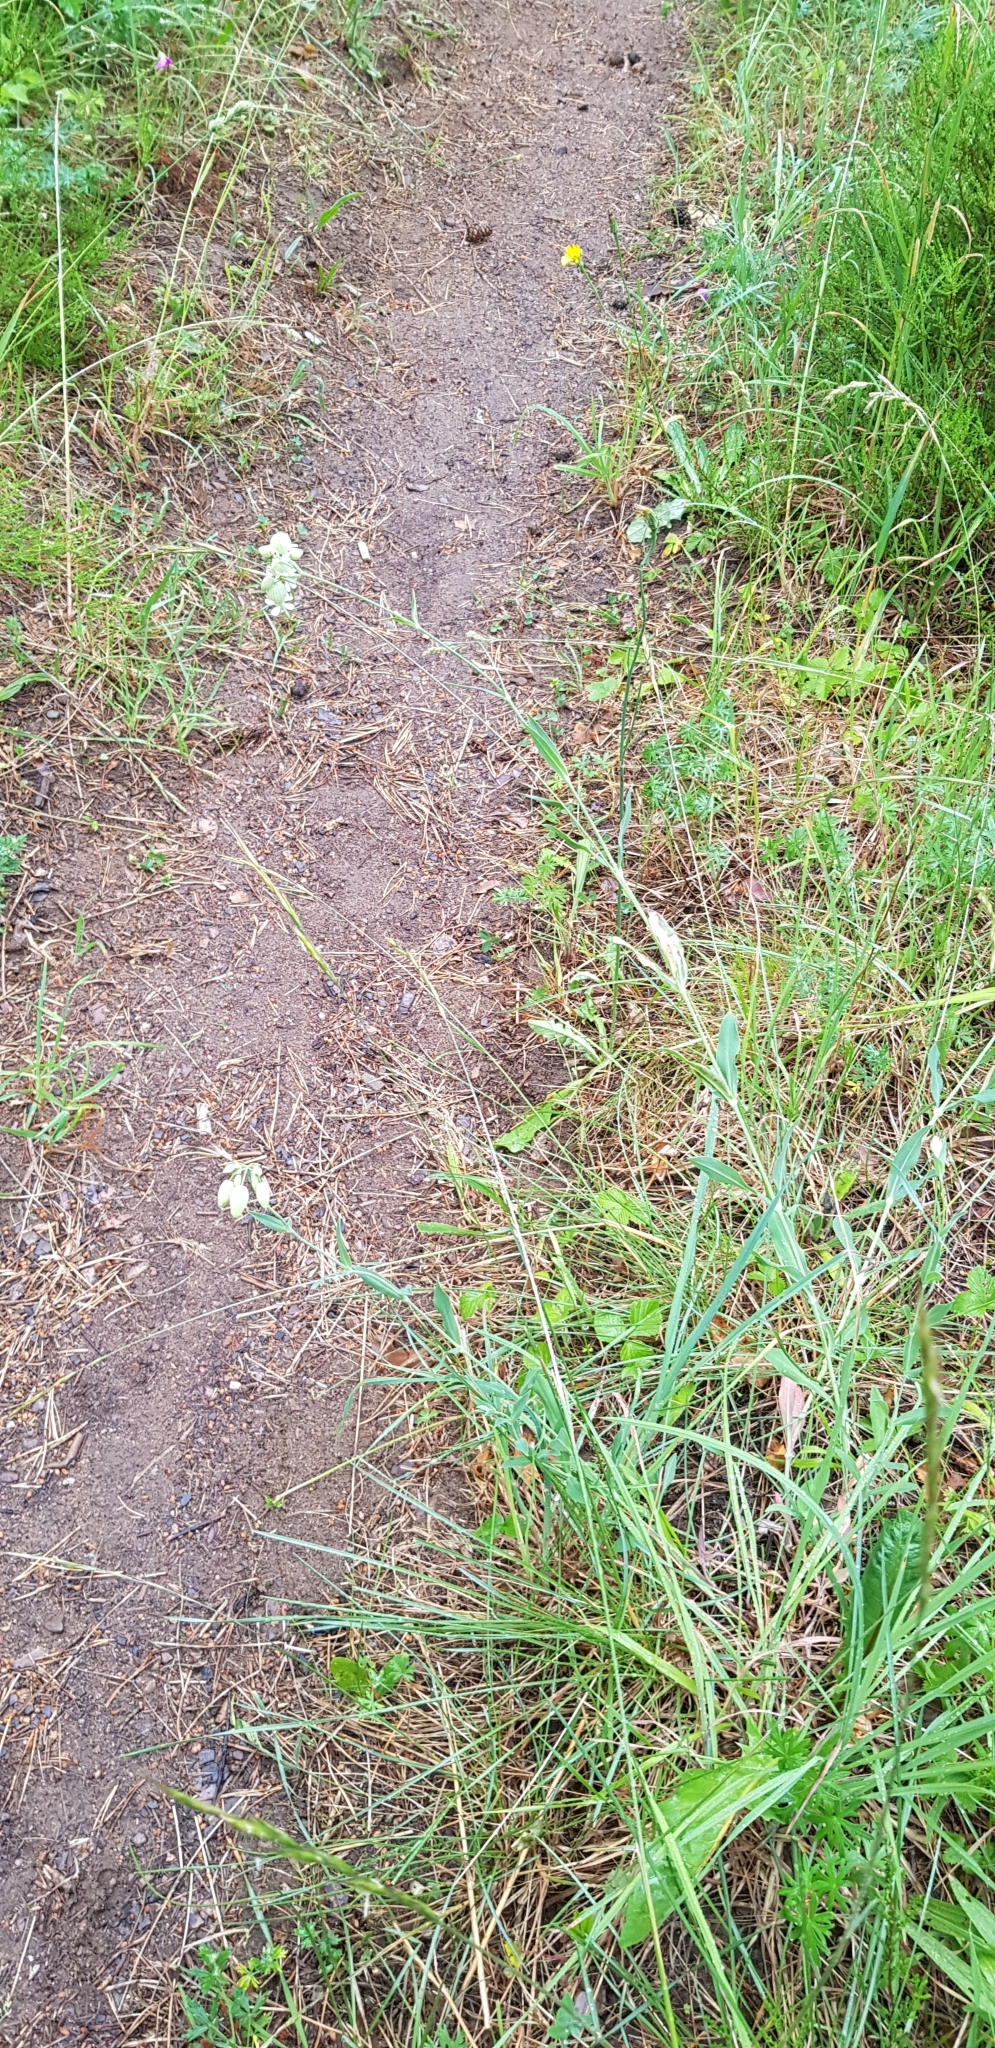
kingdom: Plantae
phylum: Tracheophyta
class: Magnoliopsida
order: Caryophyllales
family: Caryophyllaceae
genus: Silene
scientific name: Silene vulgaris
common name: Bladder campion
